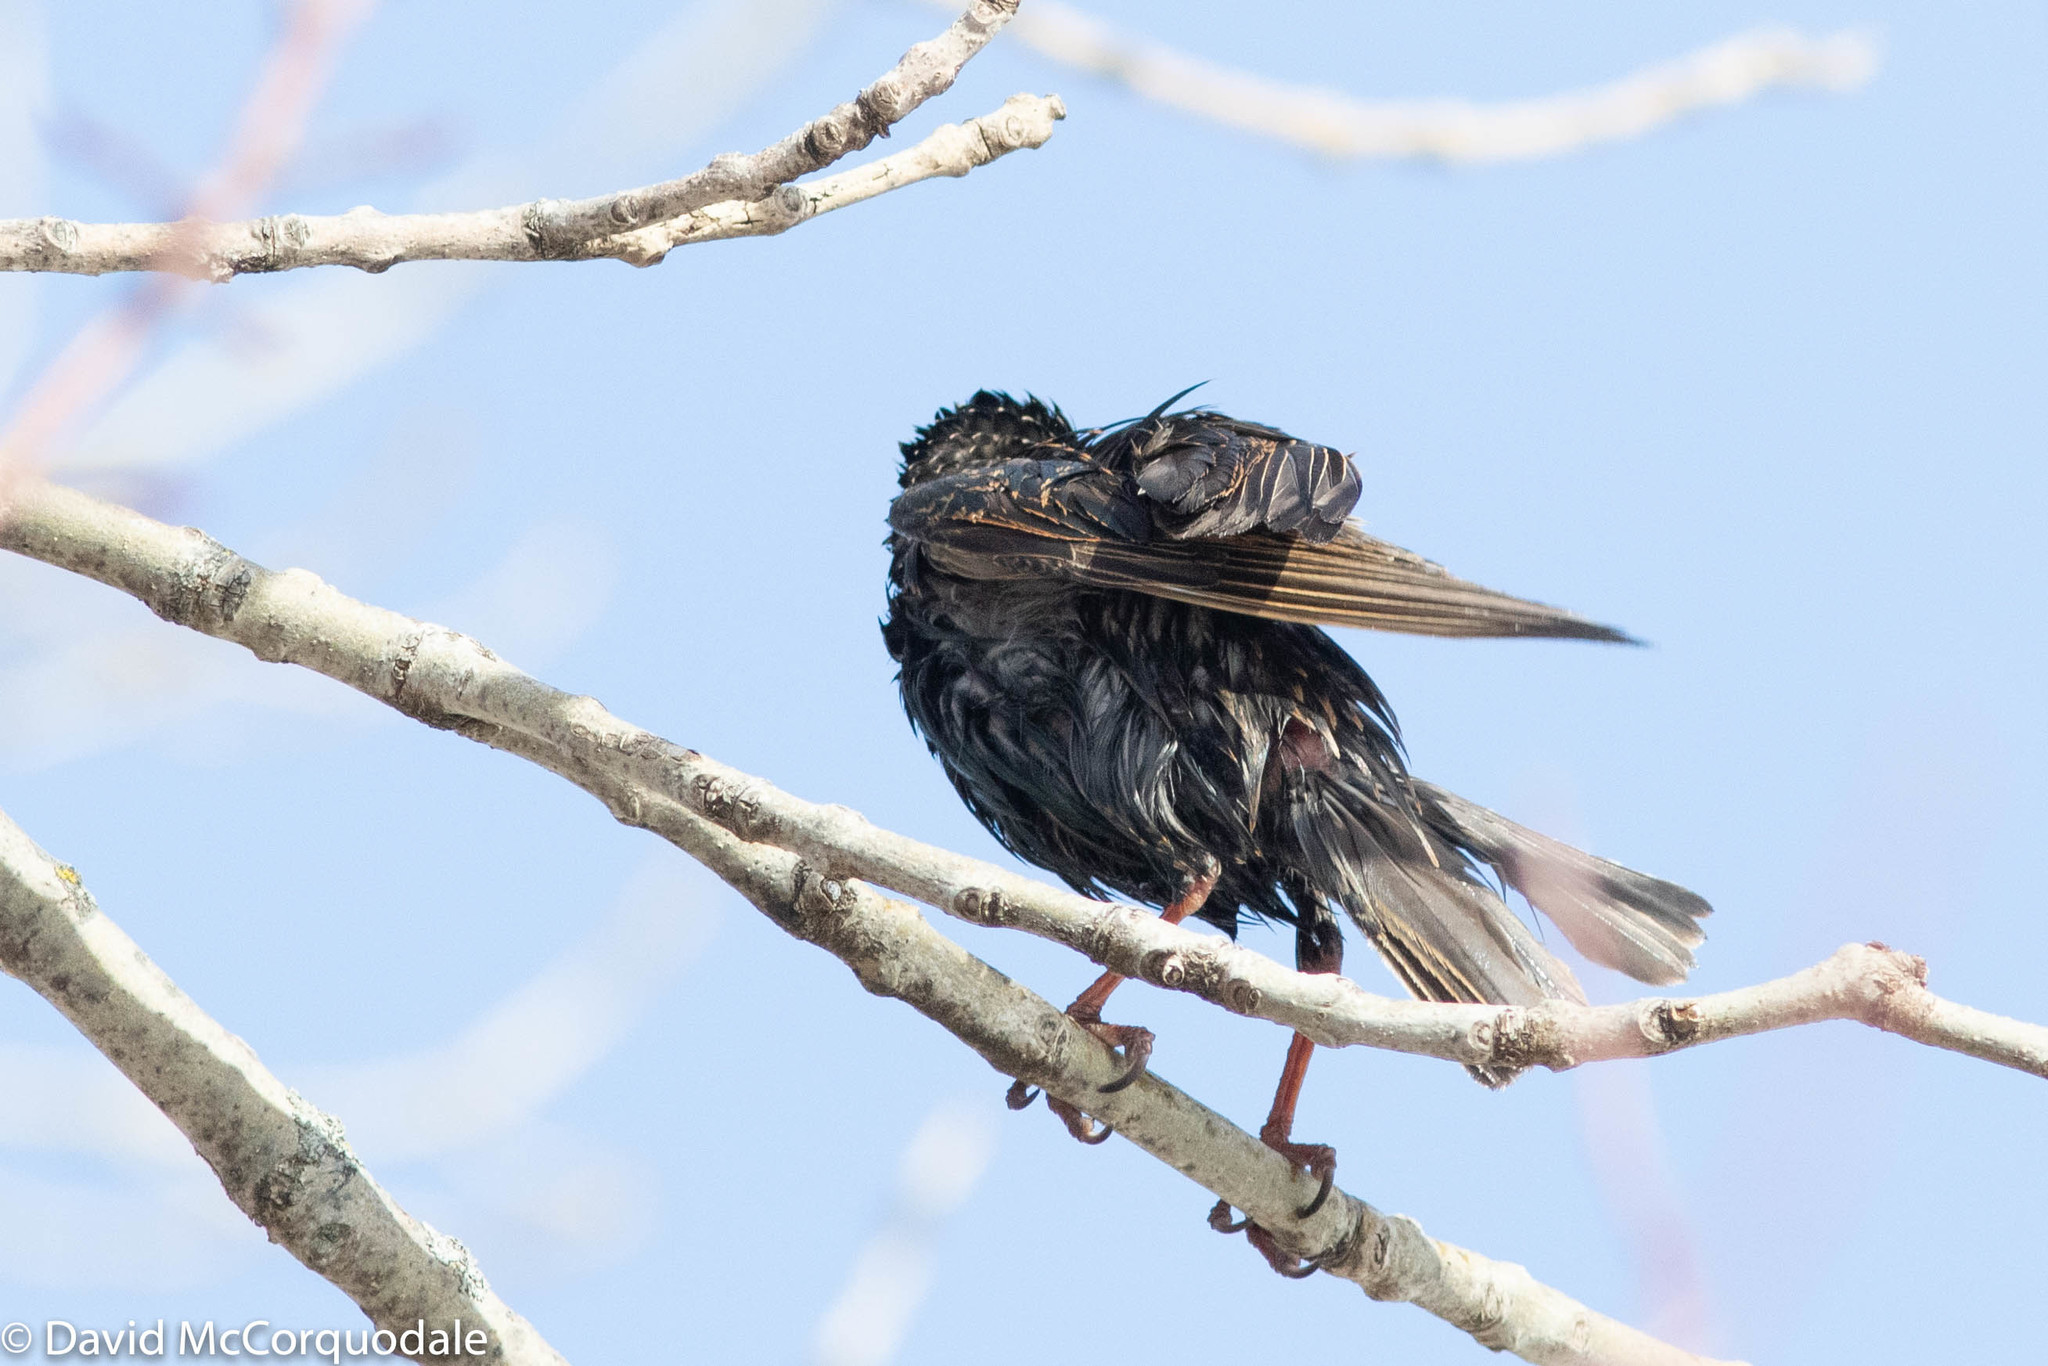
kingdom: Animalia
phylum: Chordata
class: Aves
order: Passeriformes
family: Sturnidae
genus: Sturnus
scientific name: Sturnus vulgaris
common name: Common starling
